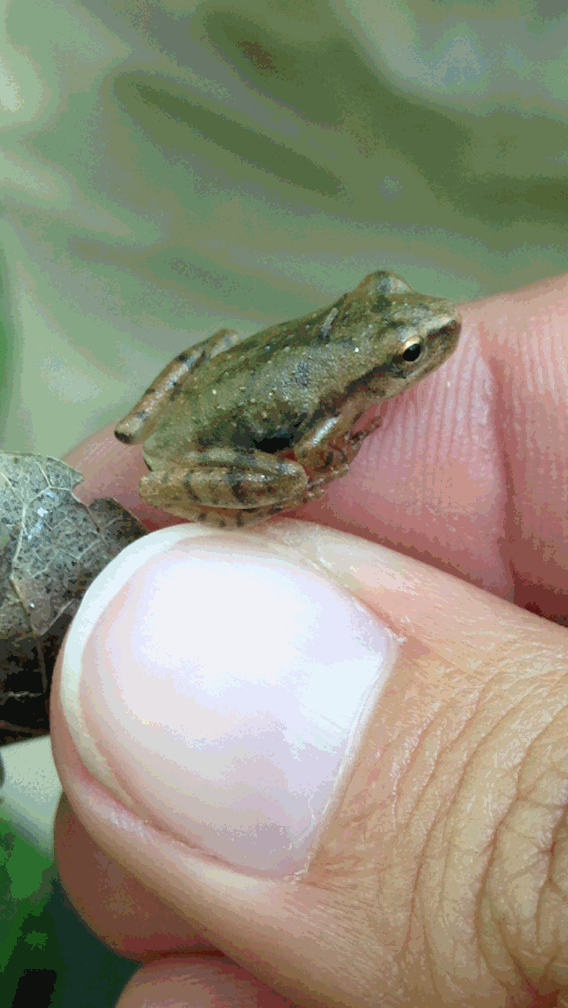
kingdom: Animalia
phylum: Chordata
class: Amphibia
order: Anura
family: Hylidae
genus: Pseudacris
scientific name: Pseudacris crucifer
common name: Spring peeper
